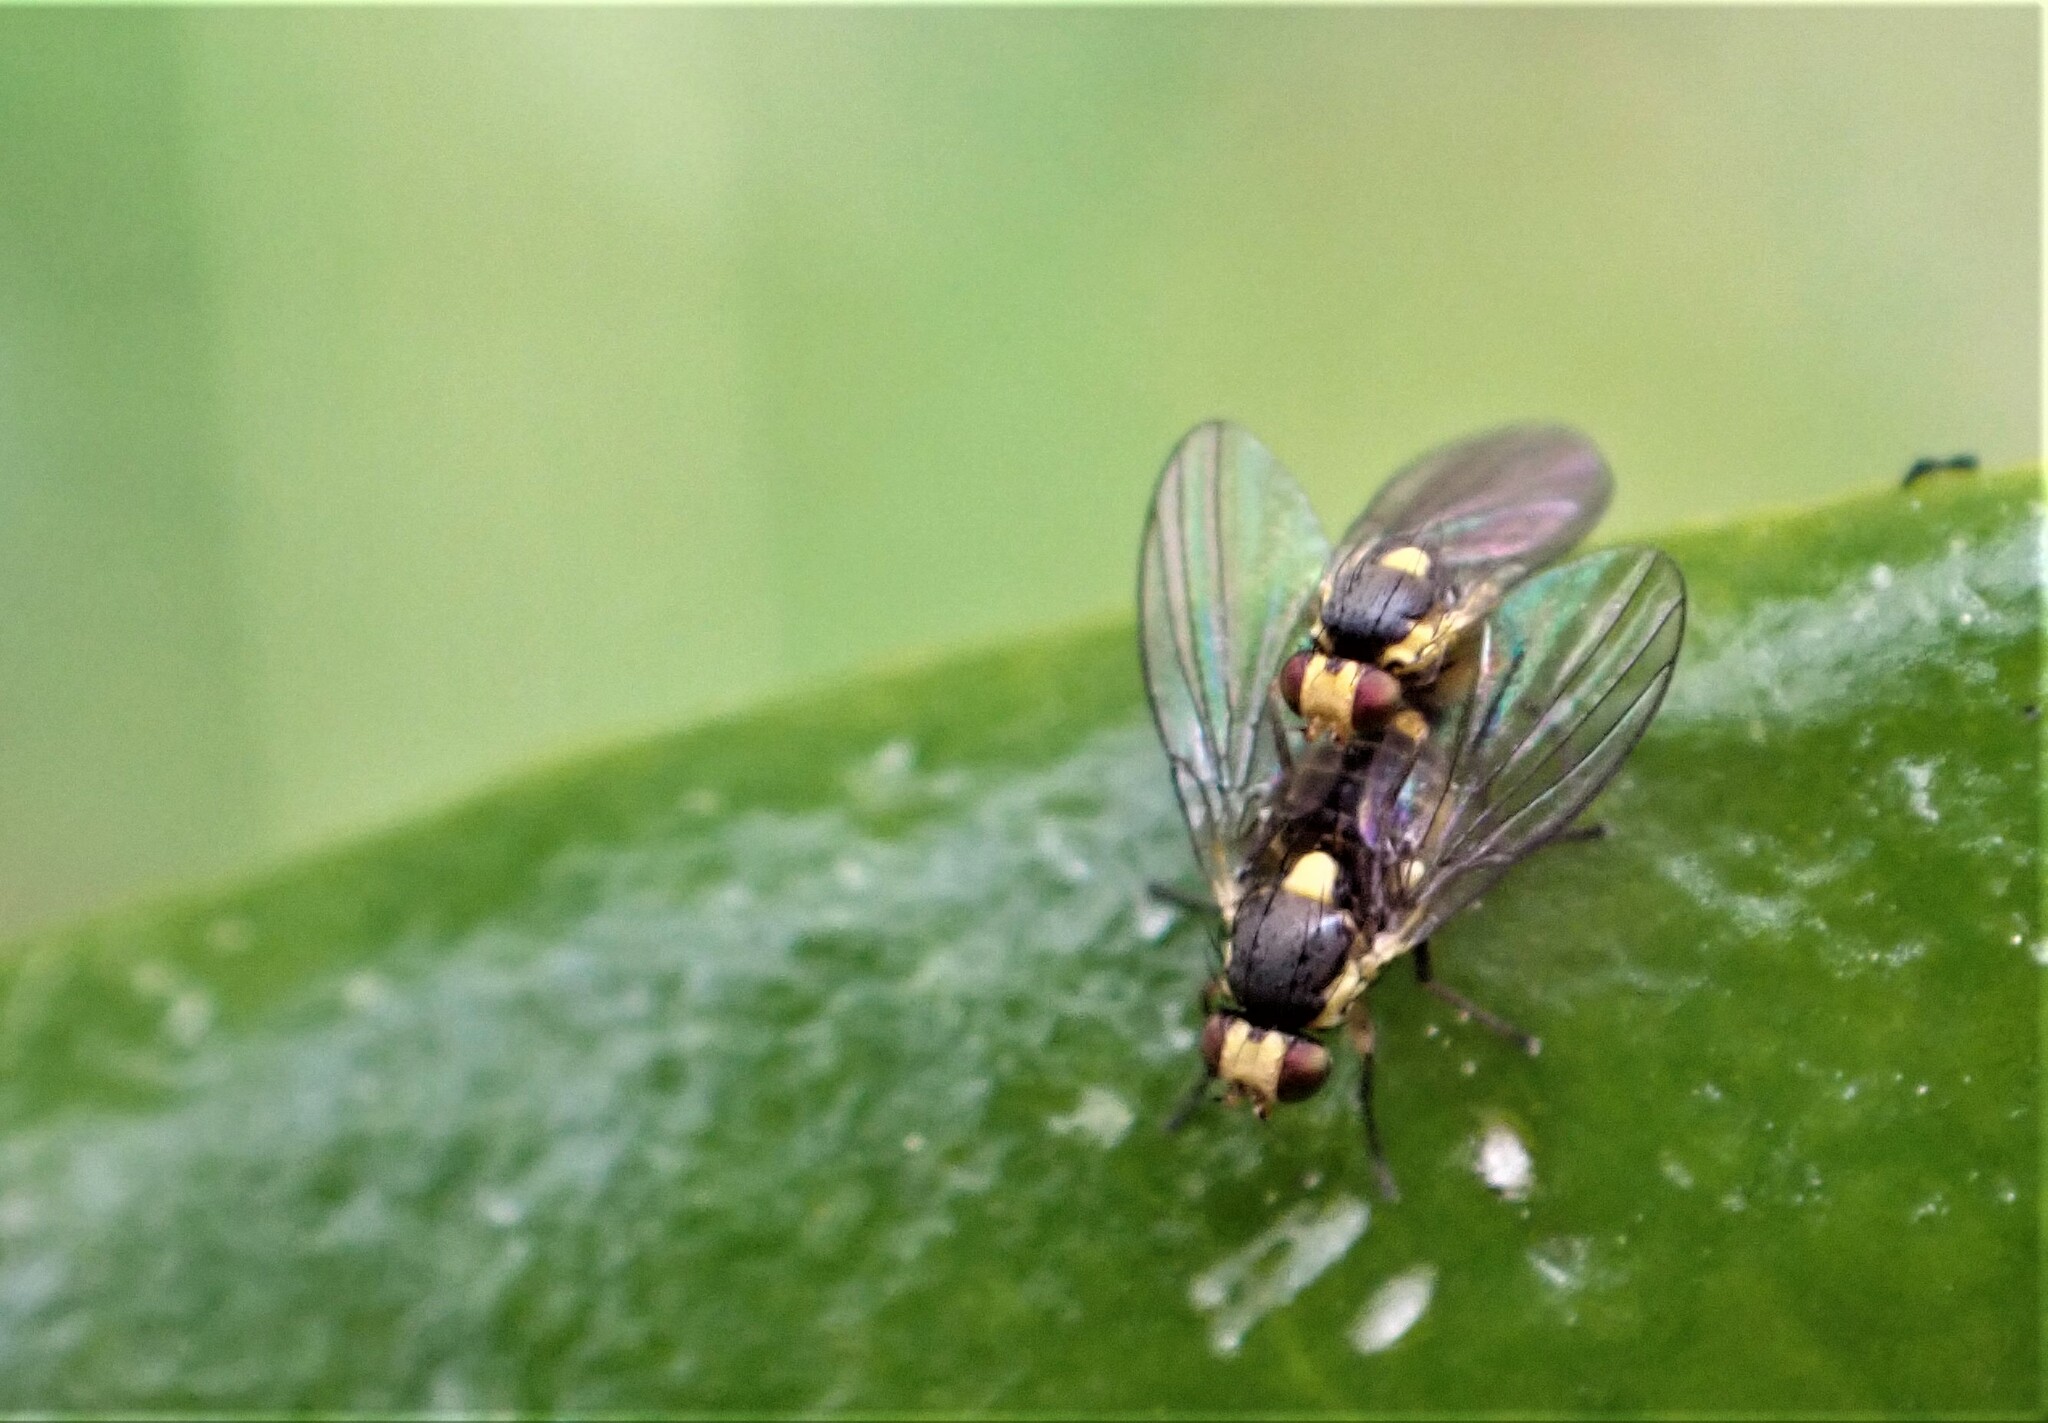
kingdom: Animalia
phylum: Arthropoda
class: Insecta
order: Diptera
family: Agromyzidae
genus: Liriomyza
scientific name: Liriomyza clianthi
